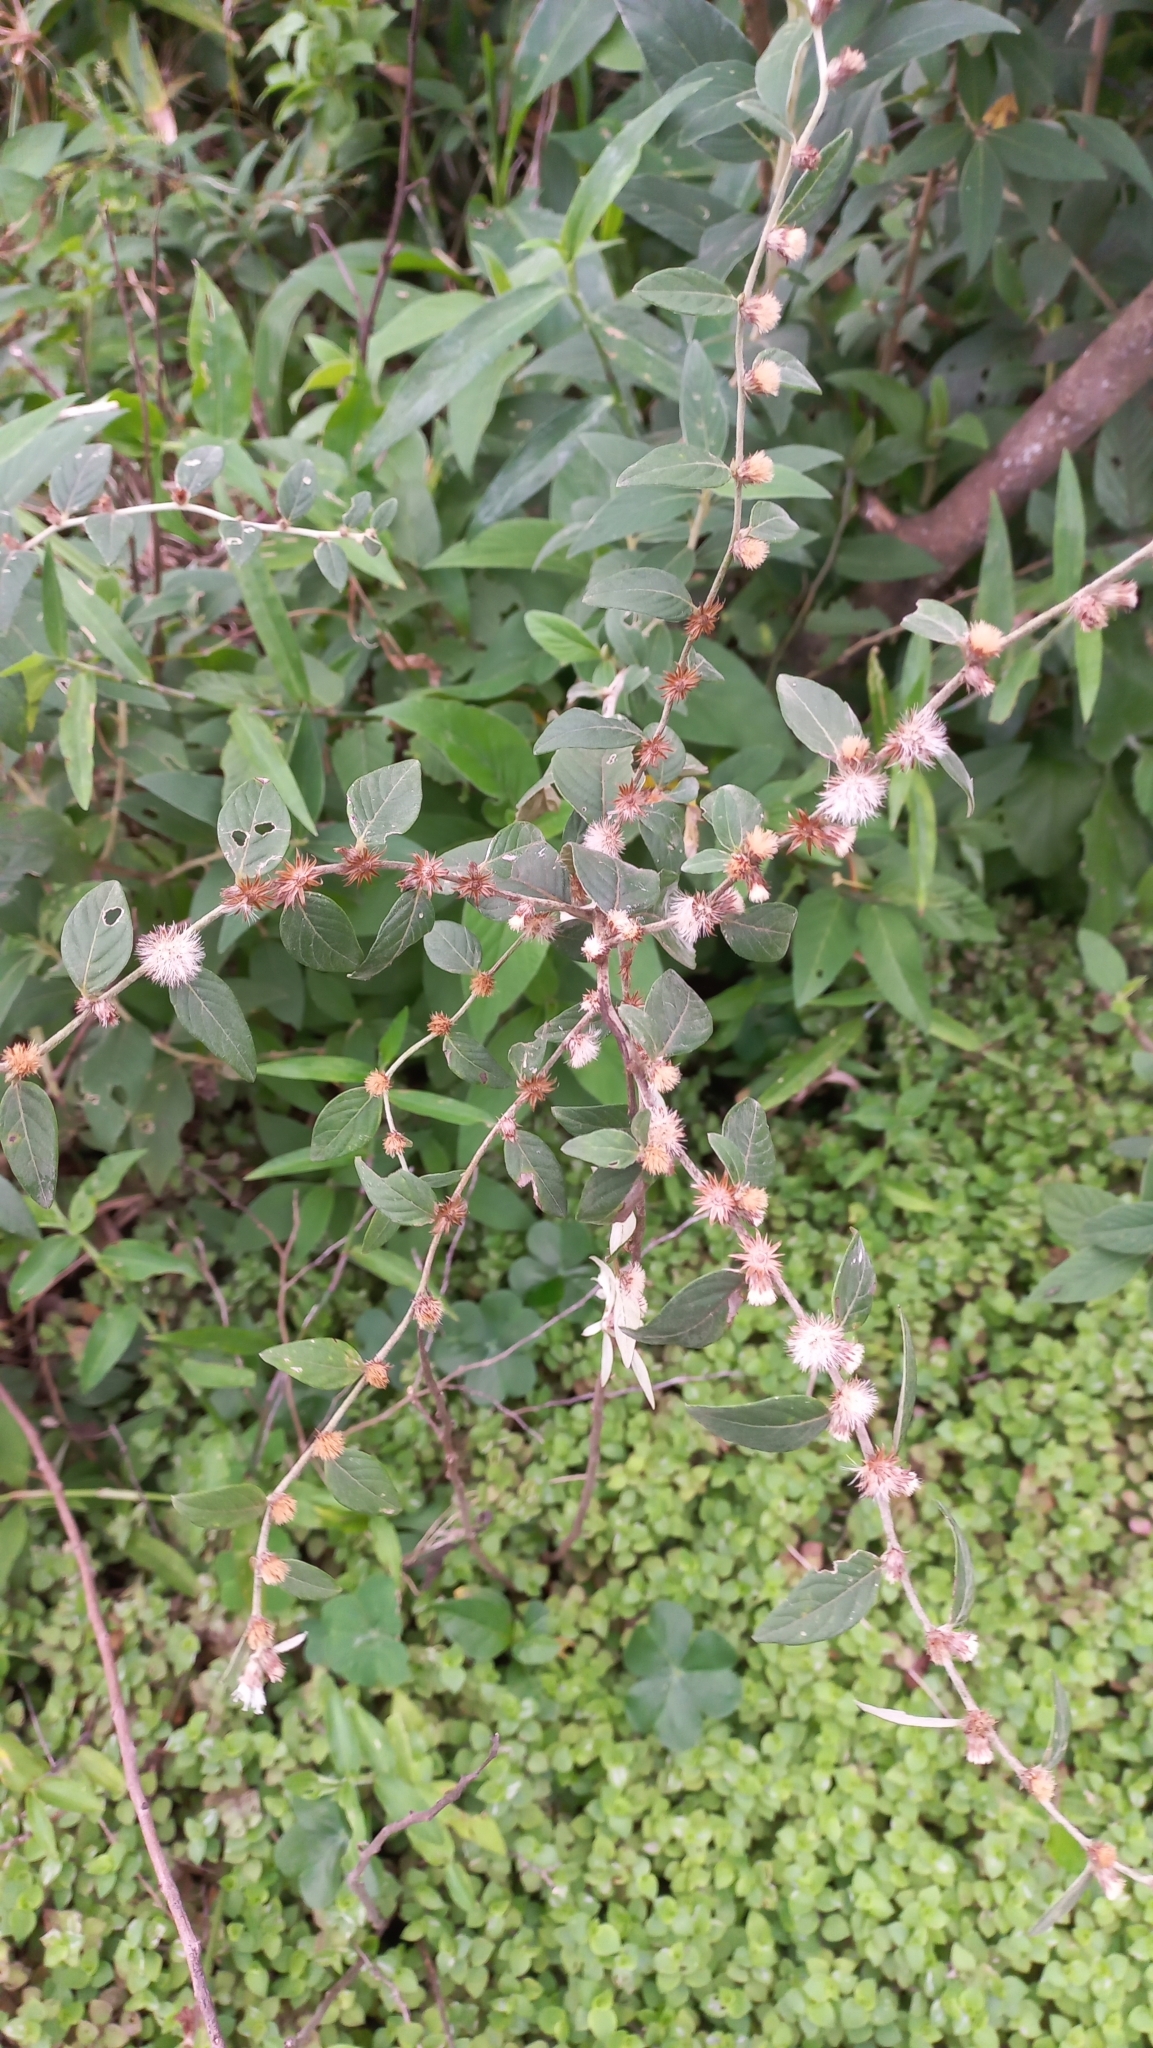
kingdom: Plantae
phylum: Tracheophyta
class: Magnoliopsida
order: Asterales
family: Asteraceae
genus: Lepidaploa
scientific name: Lepidaploa chamissonis
